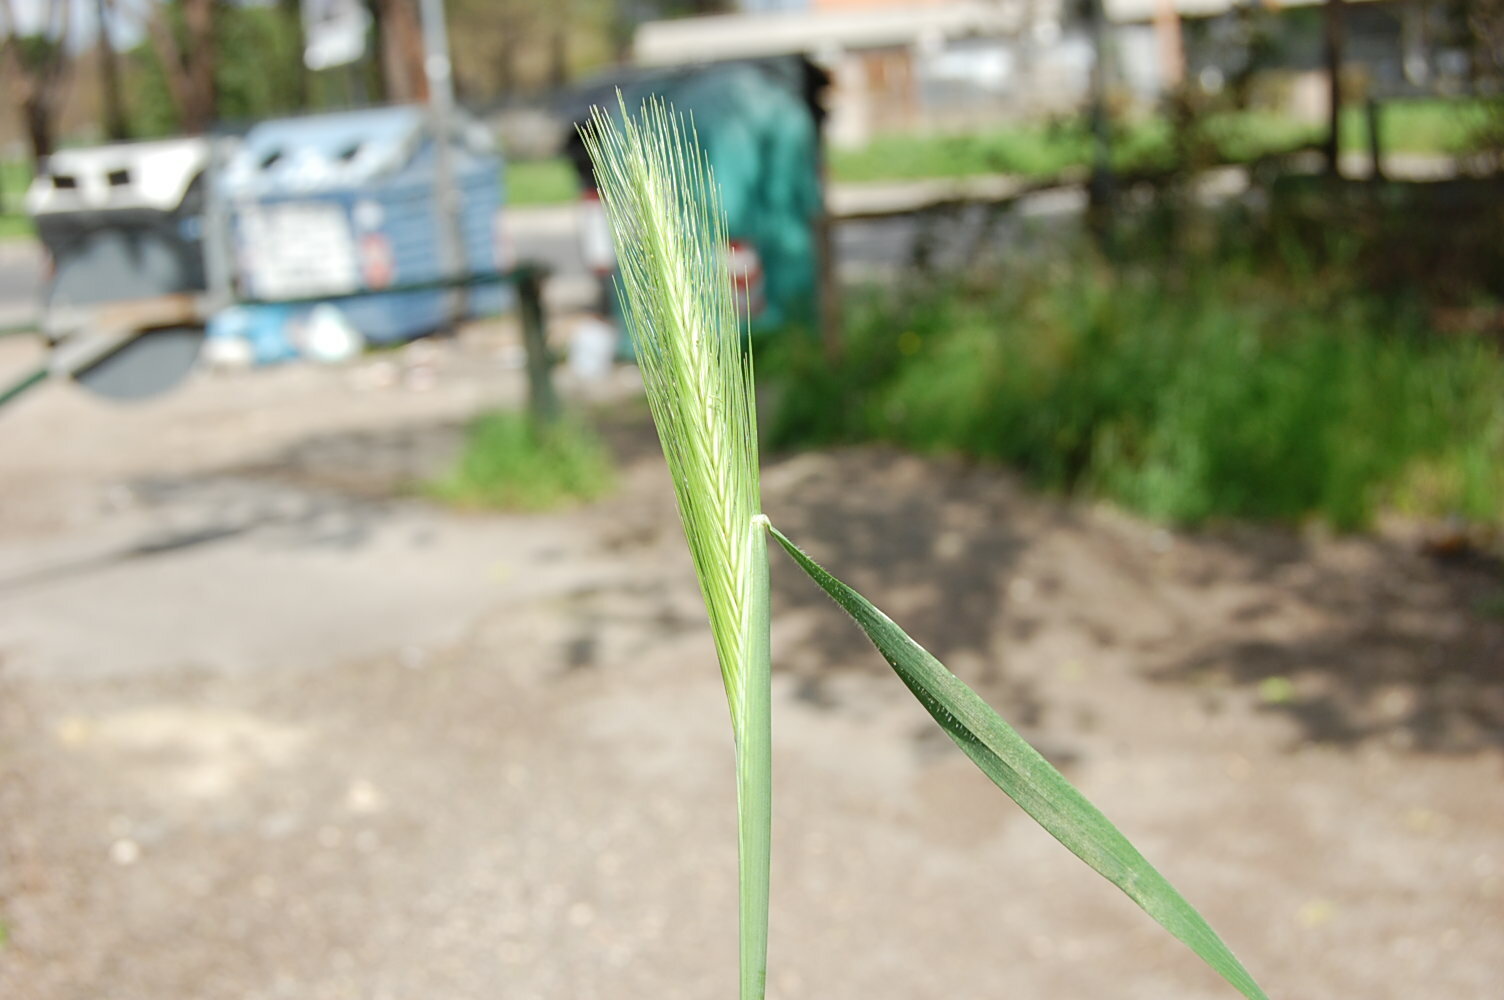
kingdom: Plantae
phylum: Tracheophyta
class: Liliopsida
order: Poales
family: Poaceae
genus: Hordeum
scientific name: Hordeum murinum
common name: Wall barley
